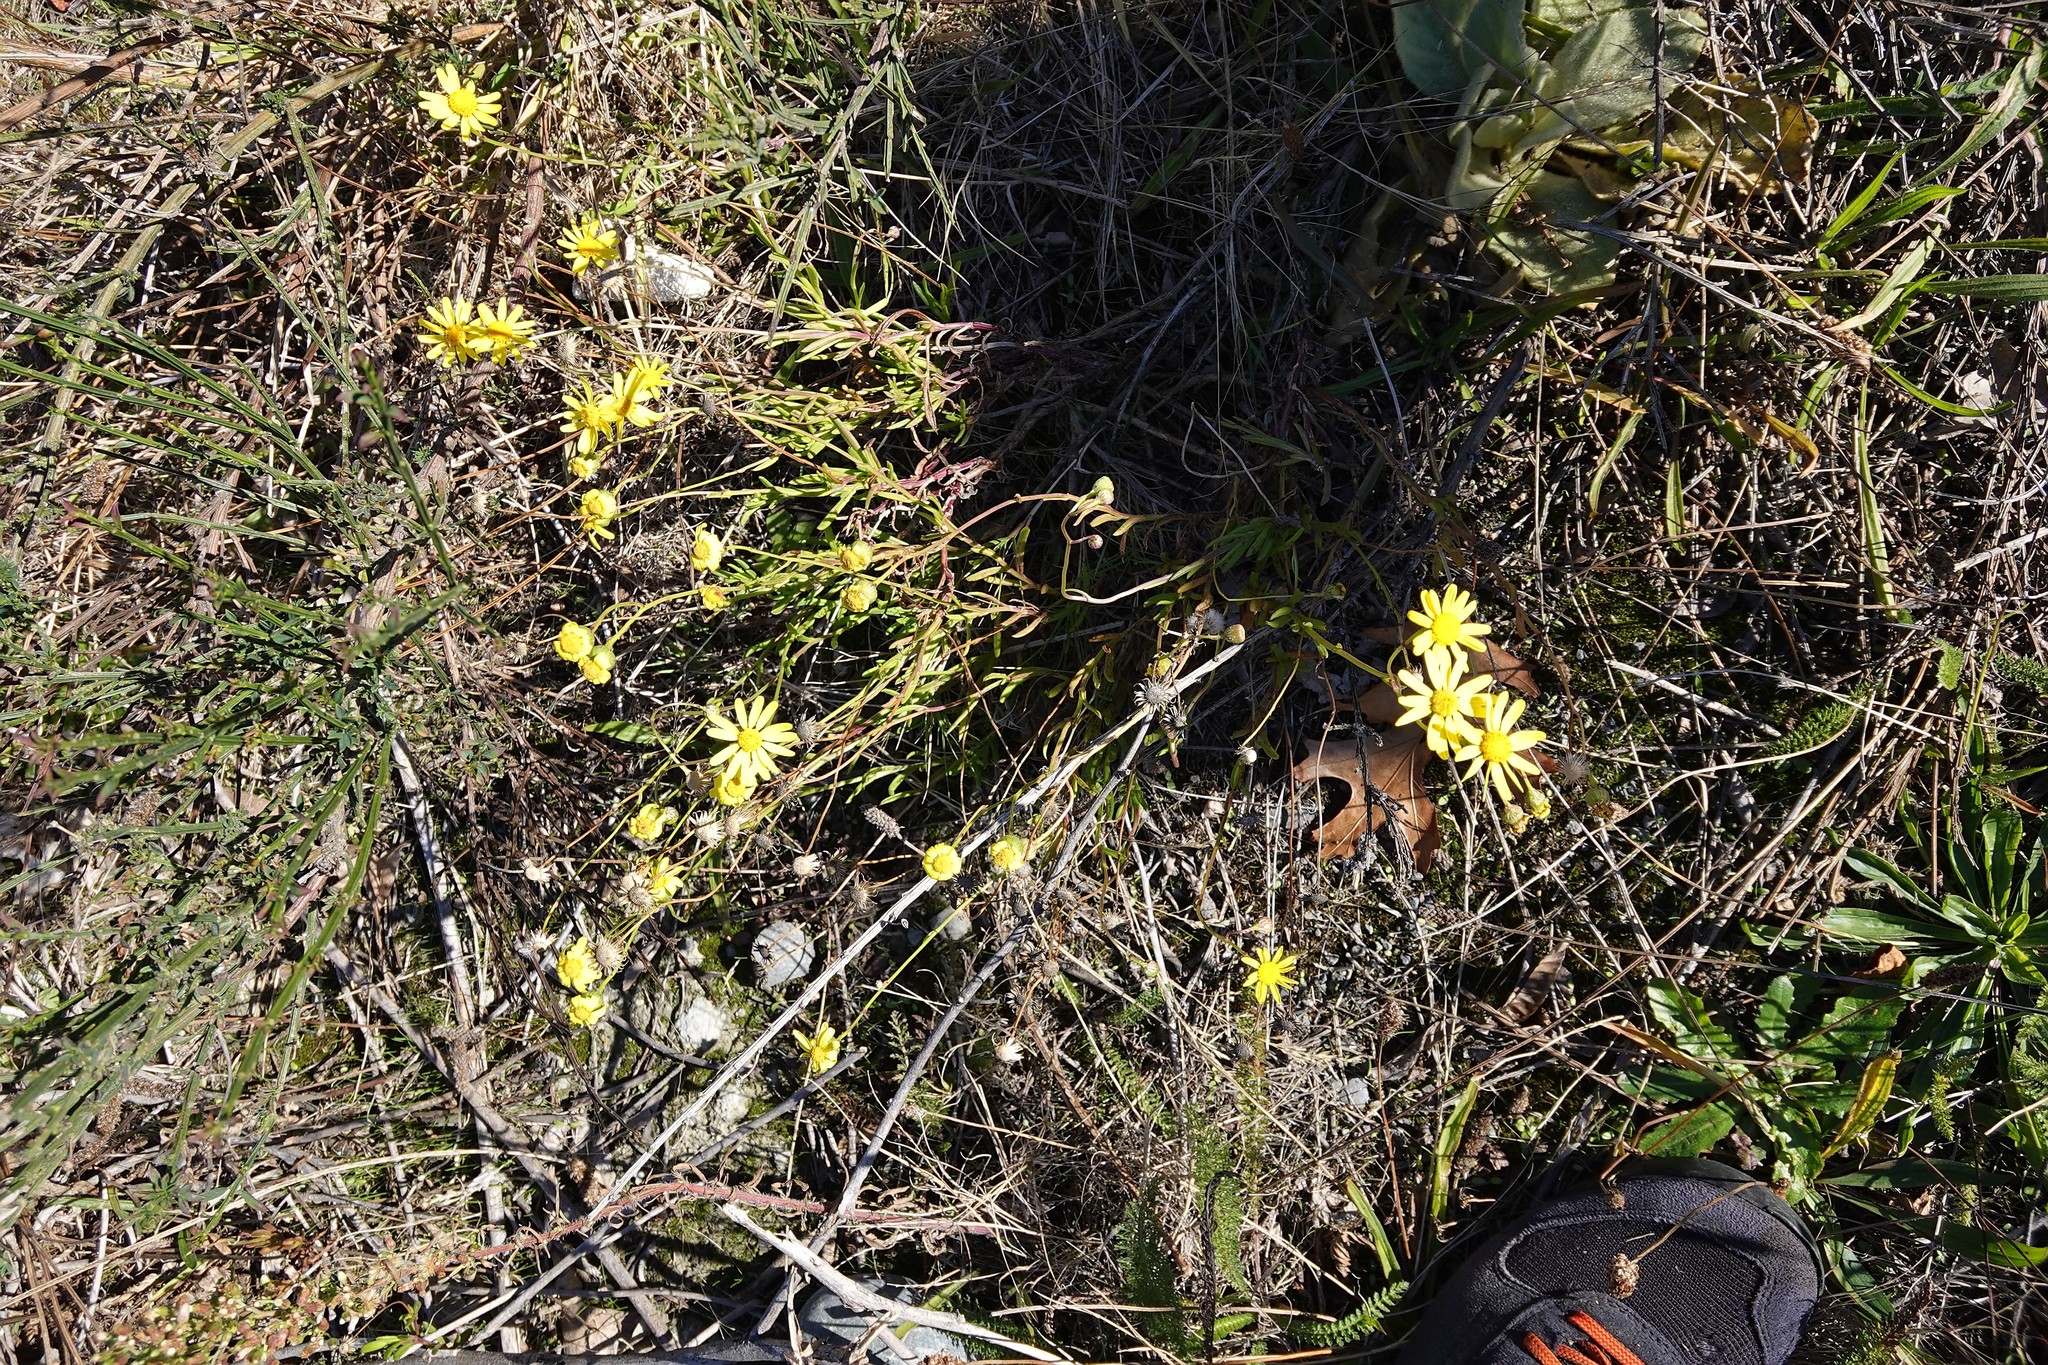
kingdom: Plantae
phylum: Tracheophyta
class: Magnoliopsida
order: Asterales
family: Asteraceae
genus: Senecio
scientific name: Senecio skirrhodon
